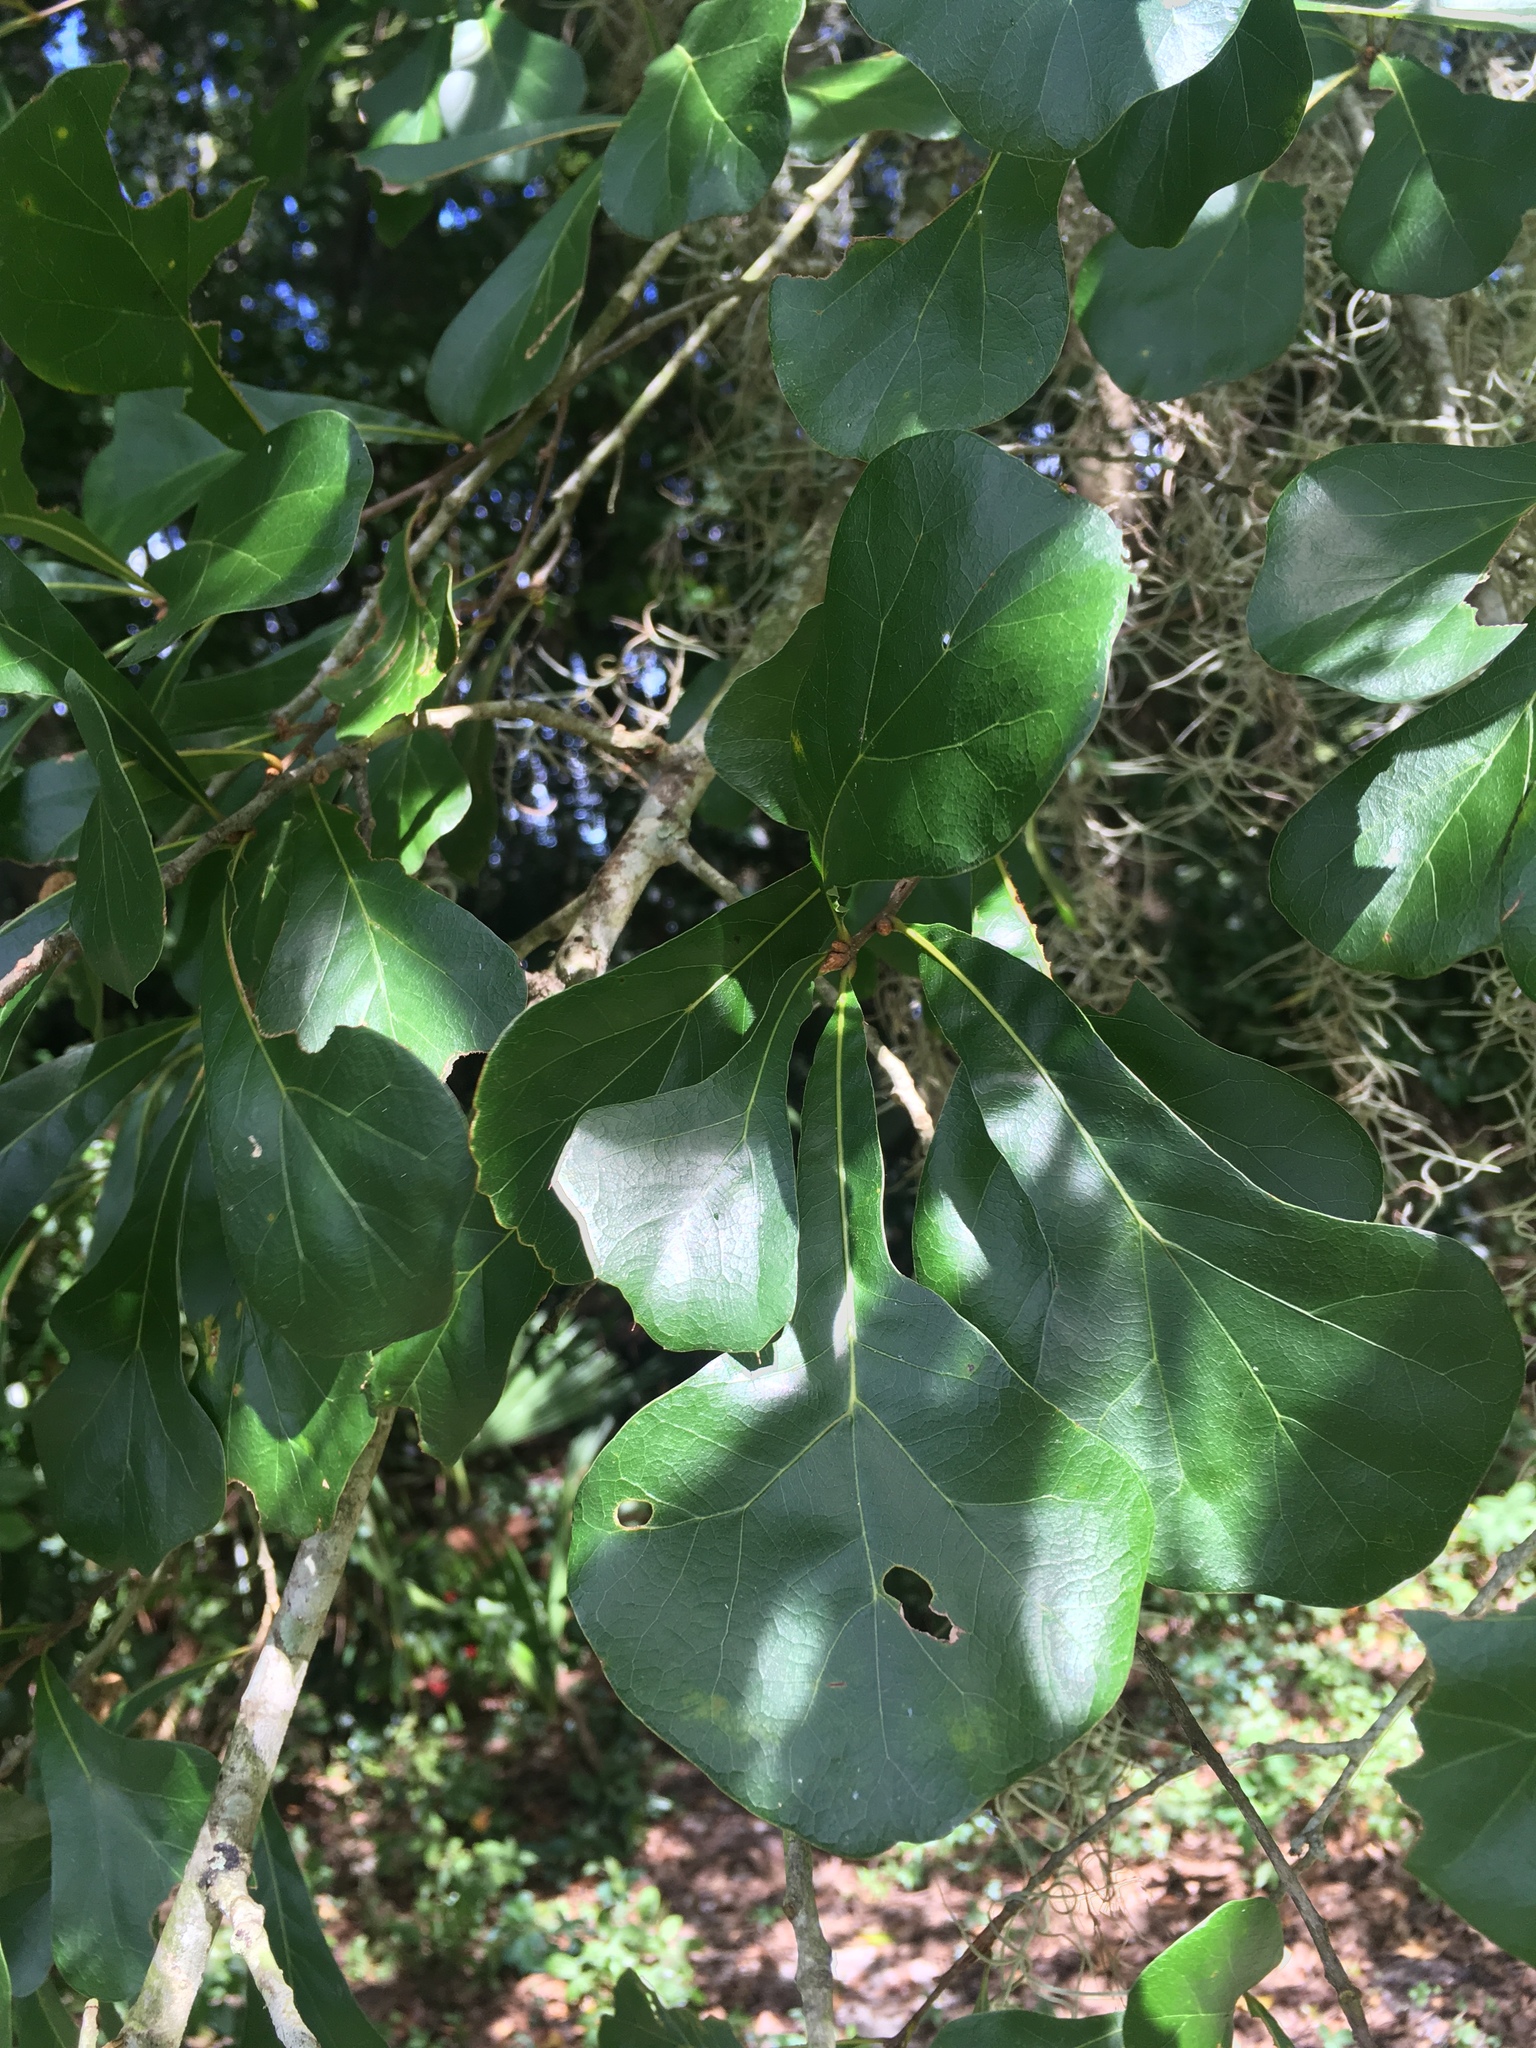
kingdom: Animalia
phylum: Arthropoda
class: Insecta
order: Hymenoptera
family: Cynipidae
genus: Callirhytis
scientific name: Callirhytis
